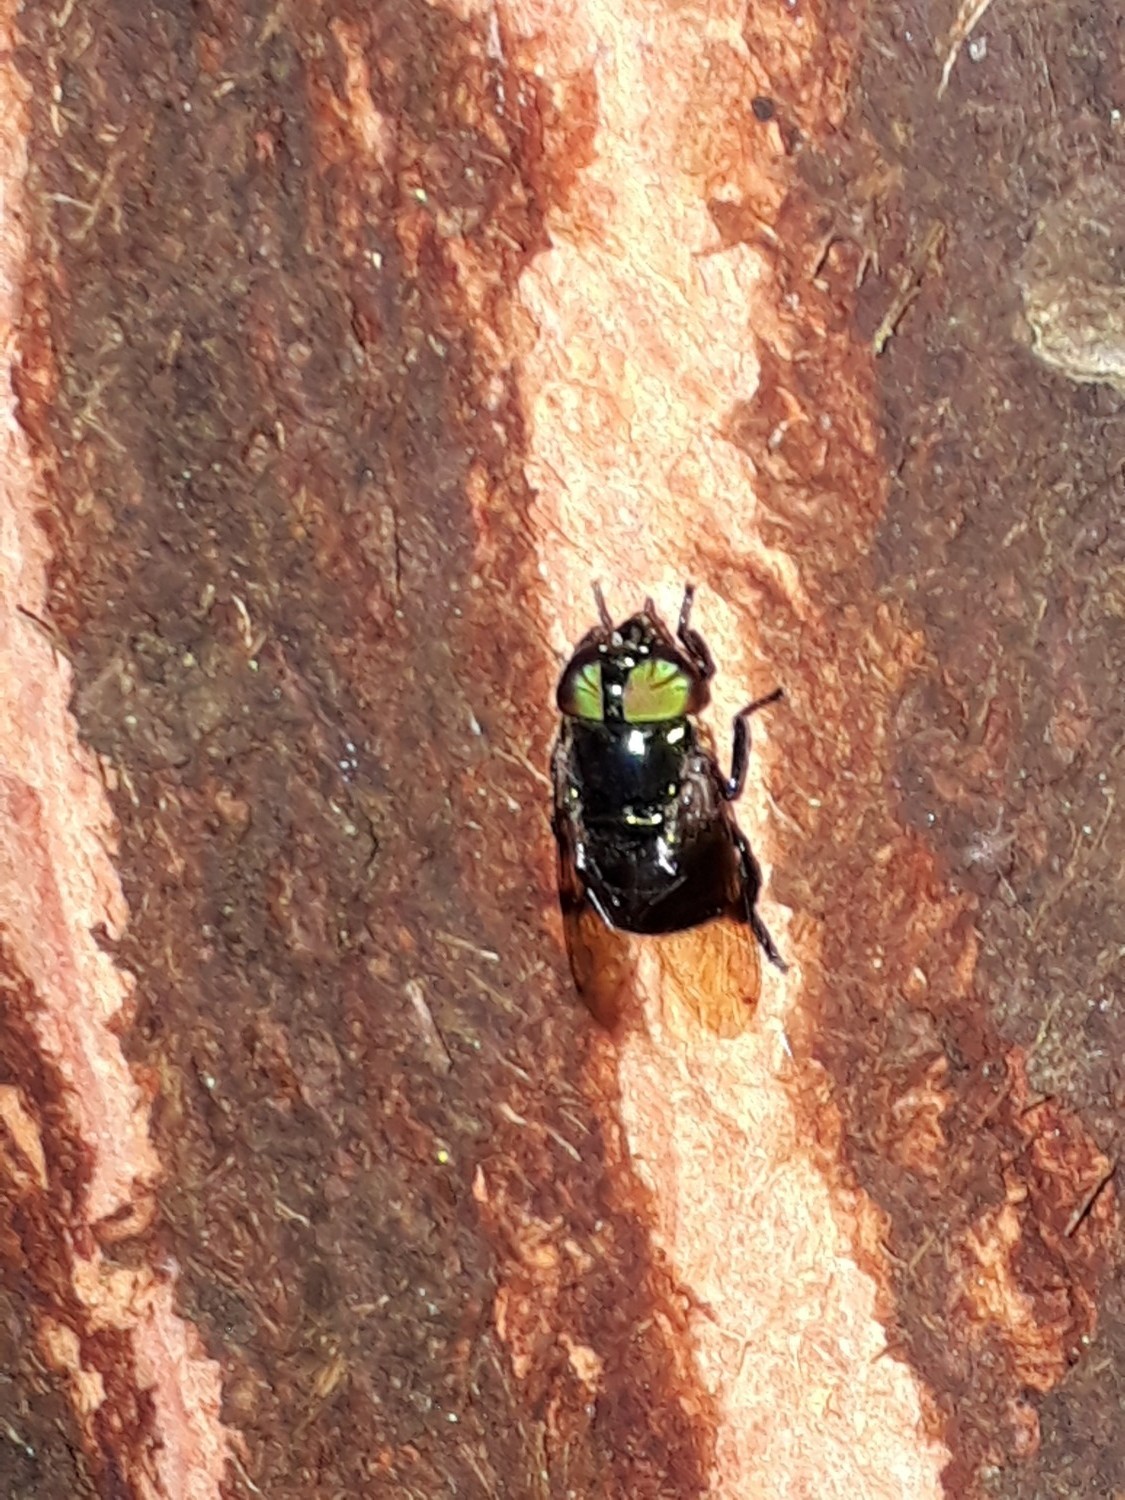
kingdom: Animalia
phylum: Arthropoda
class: Insecta
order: Diptera
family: Syrphidae
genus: Ornidia
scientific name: Ornidia obesa
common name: Syrphid fly
